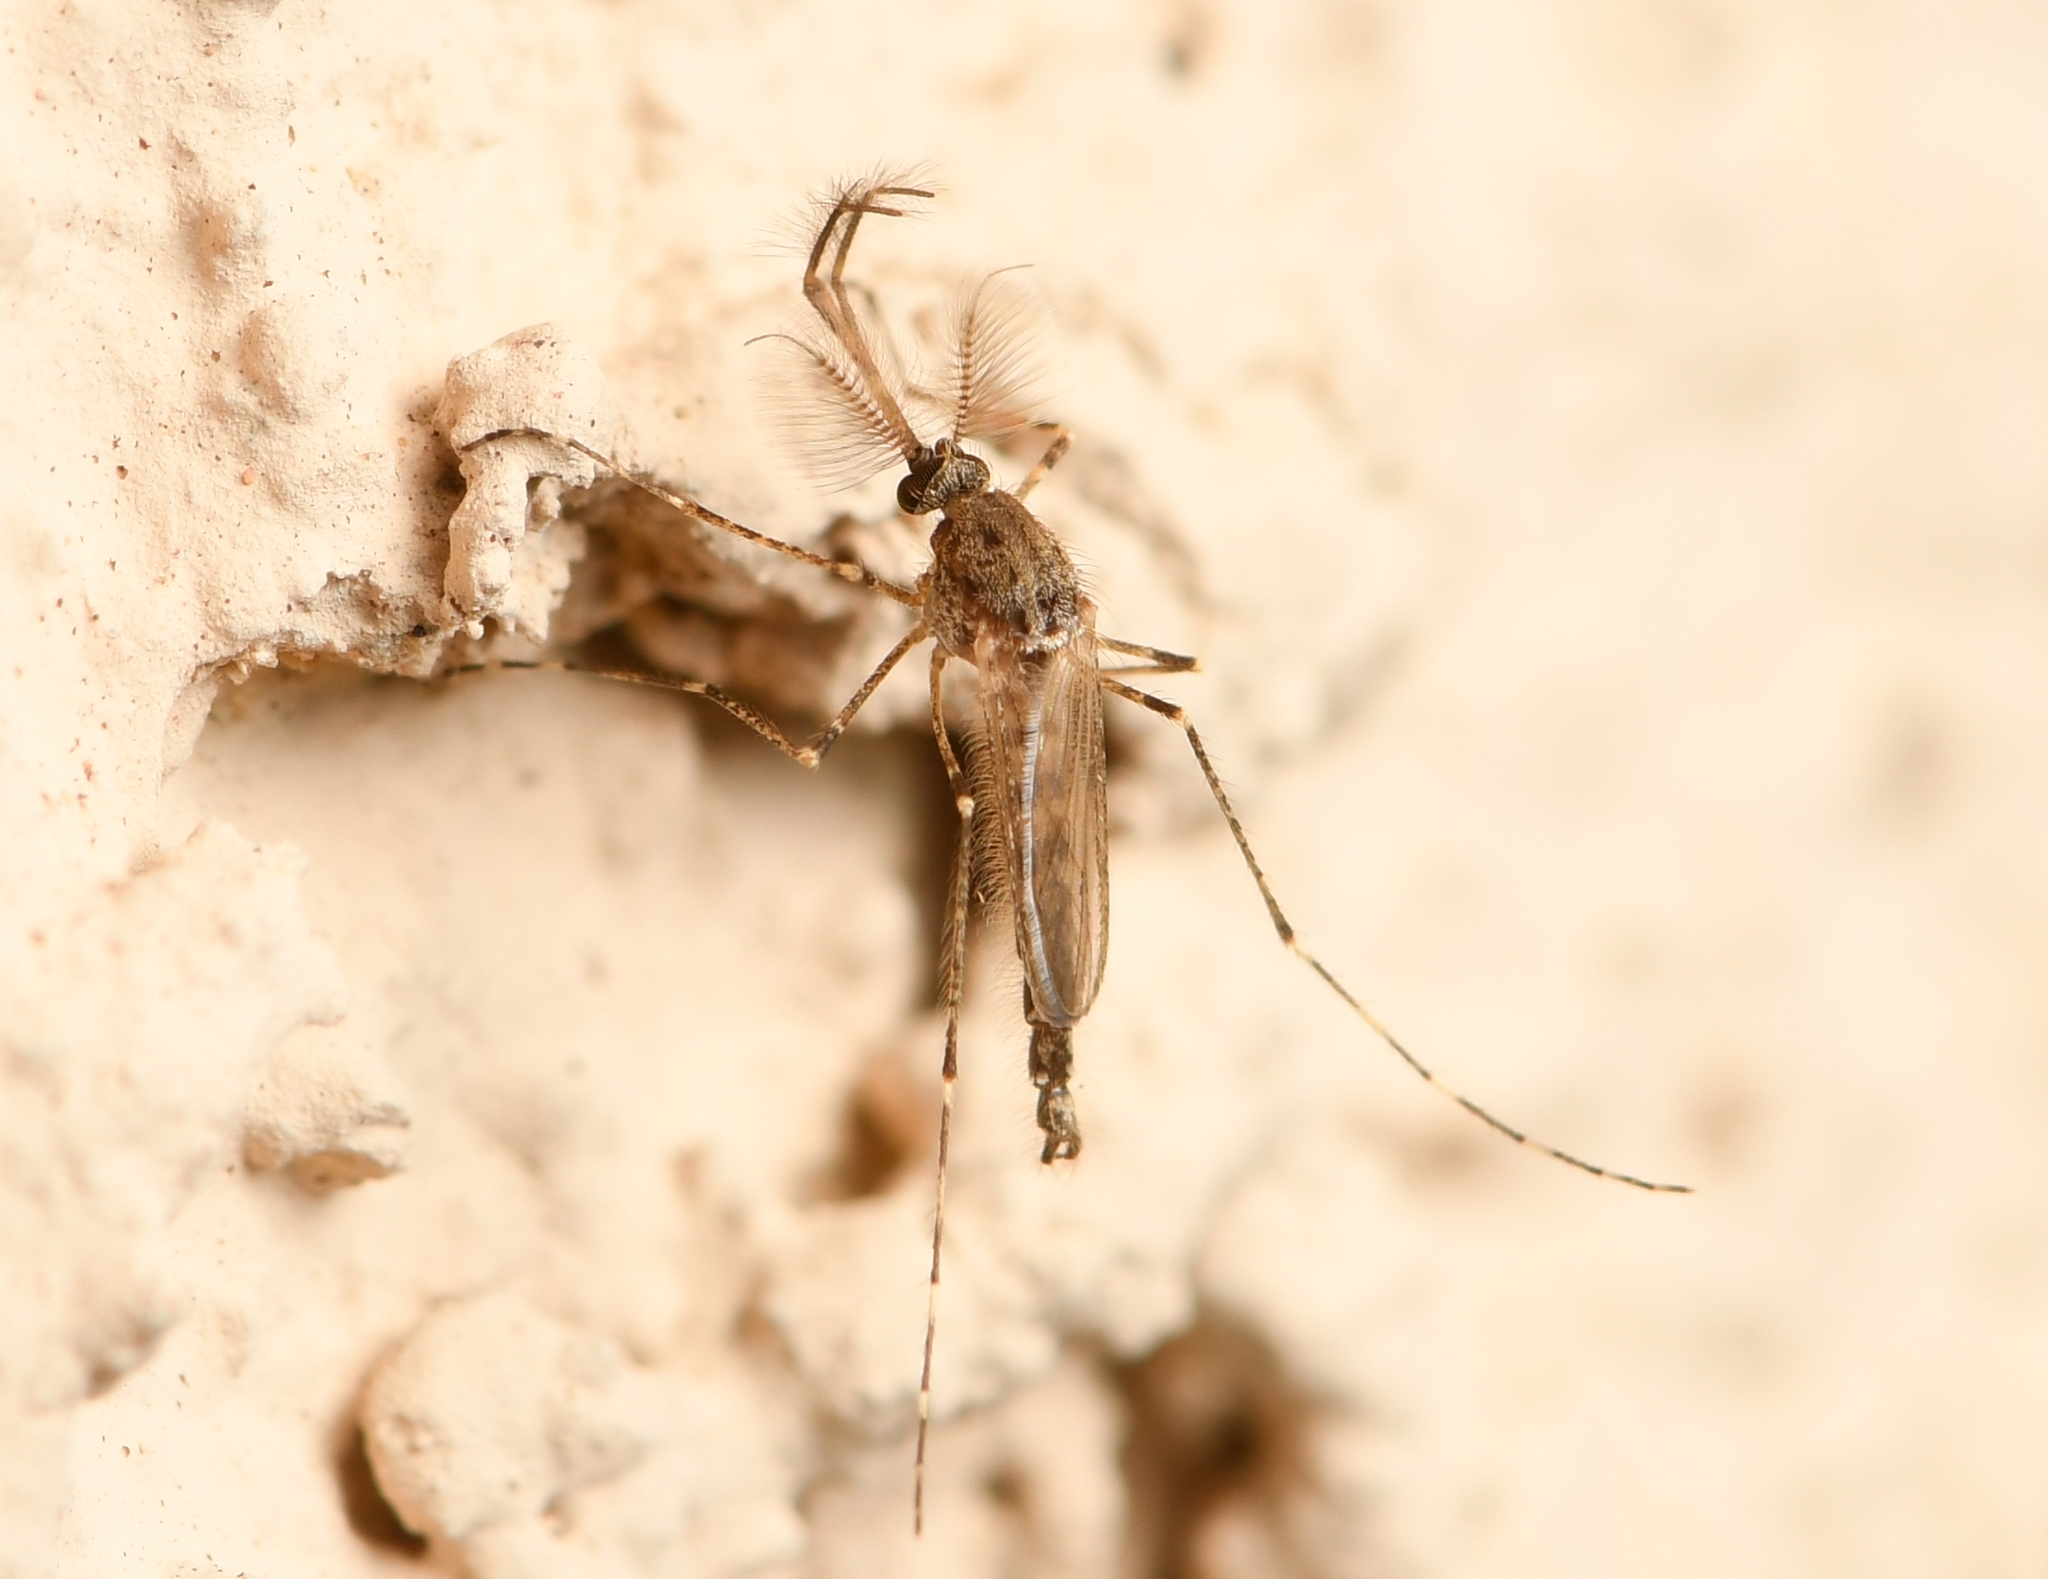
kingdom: Animalia
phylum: Arthropoda
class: Insecta
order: Diptera
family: Culicidae
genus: Psorophora
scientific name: Psorophora columbiae
